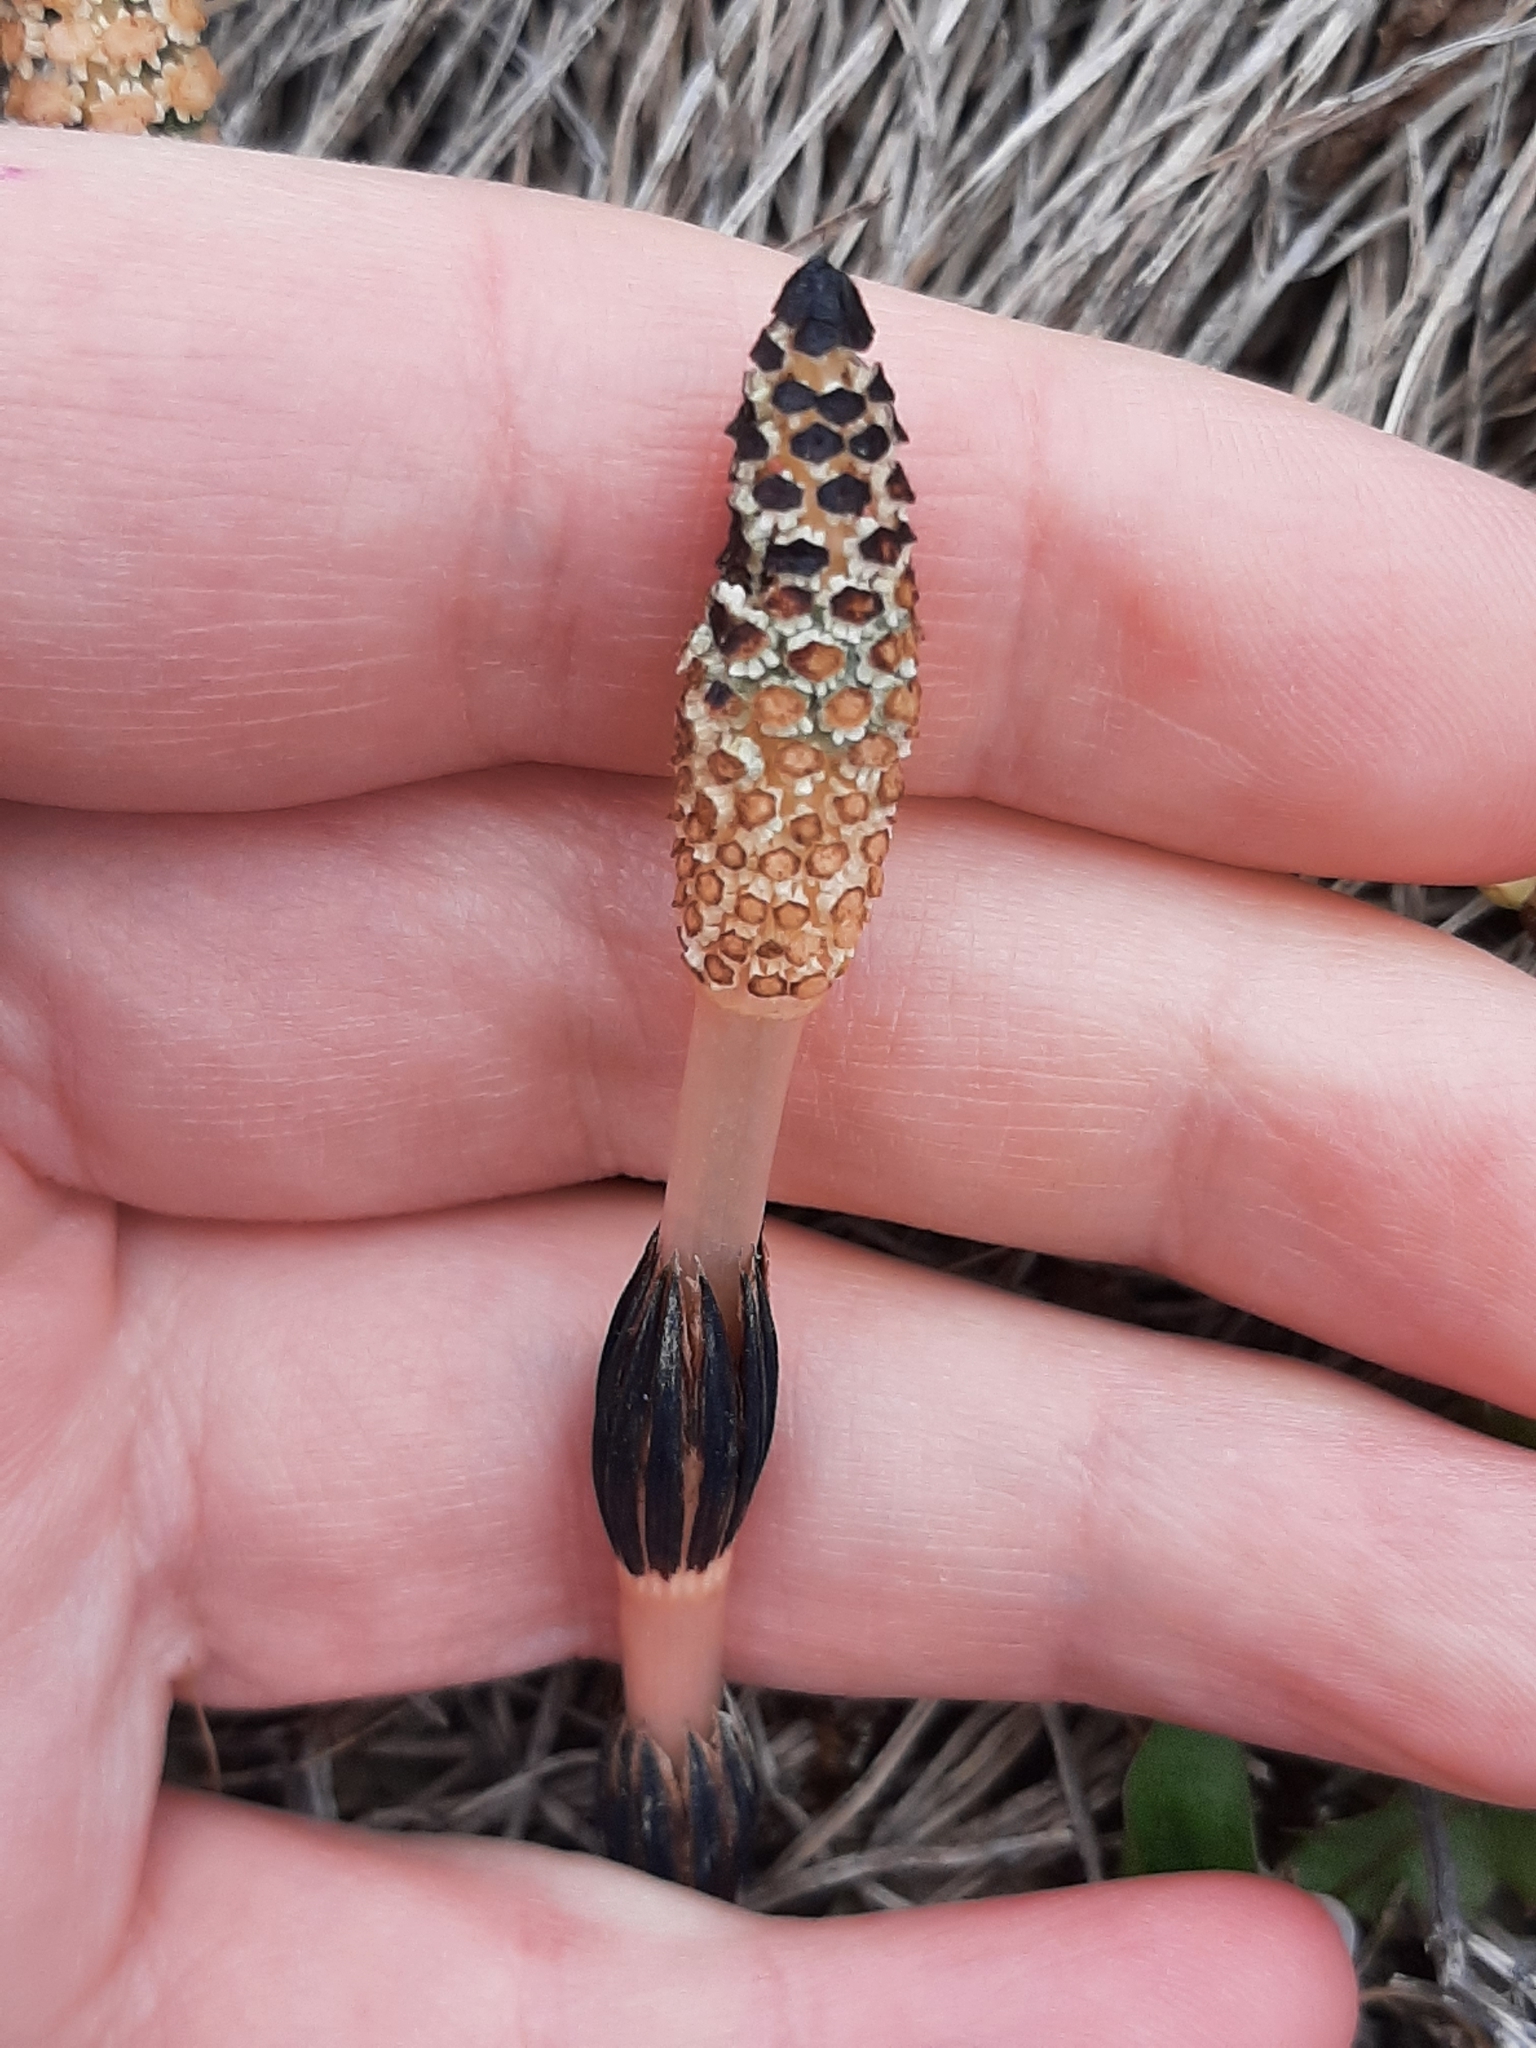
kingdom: Plantae
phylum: Tracheophyta
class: Polypodiopsida
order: Equisetales
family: Equisetaceae
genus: Equisetum
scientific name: Equisetum arvense
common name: Field horsetail
